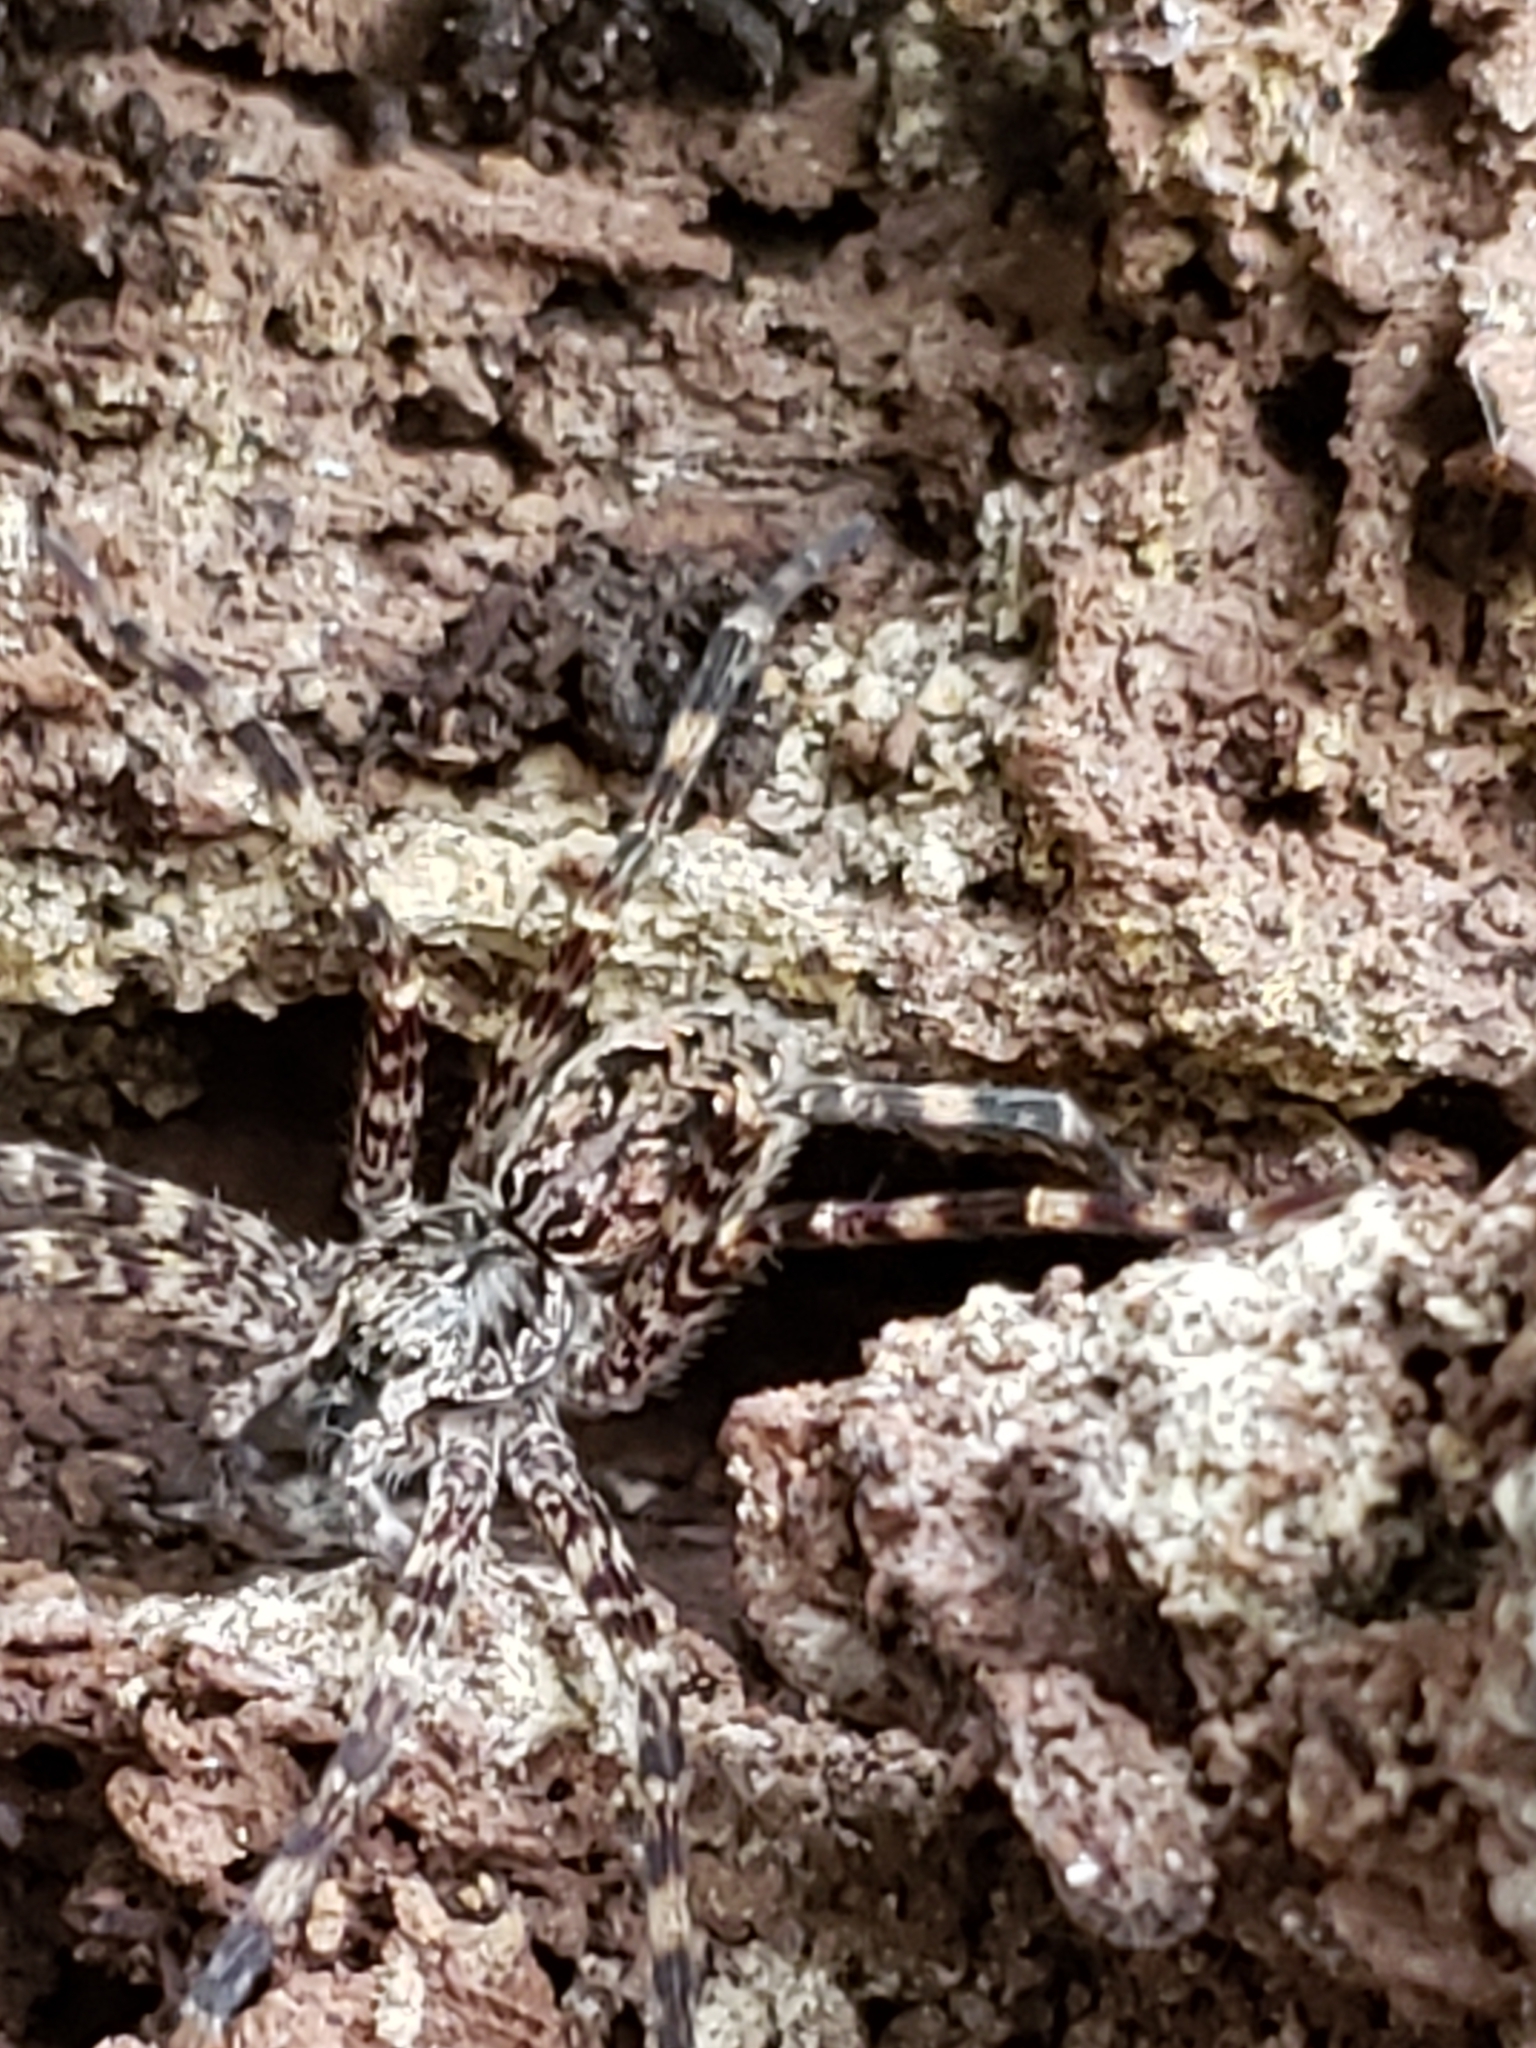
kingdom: Animalia
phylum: Arthropoda
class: Arachnida
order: Araneae
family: Pisauridae
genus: Dolomedes
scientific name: Dolomedes tenebrosus
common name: Dark fishing spider
